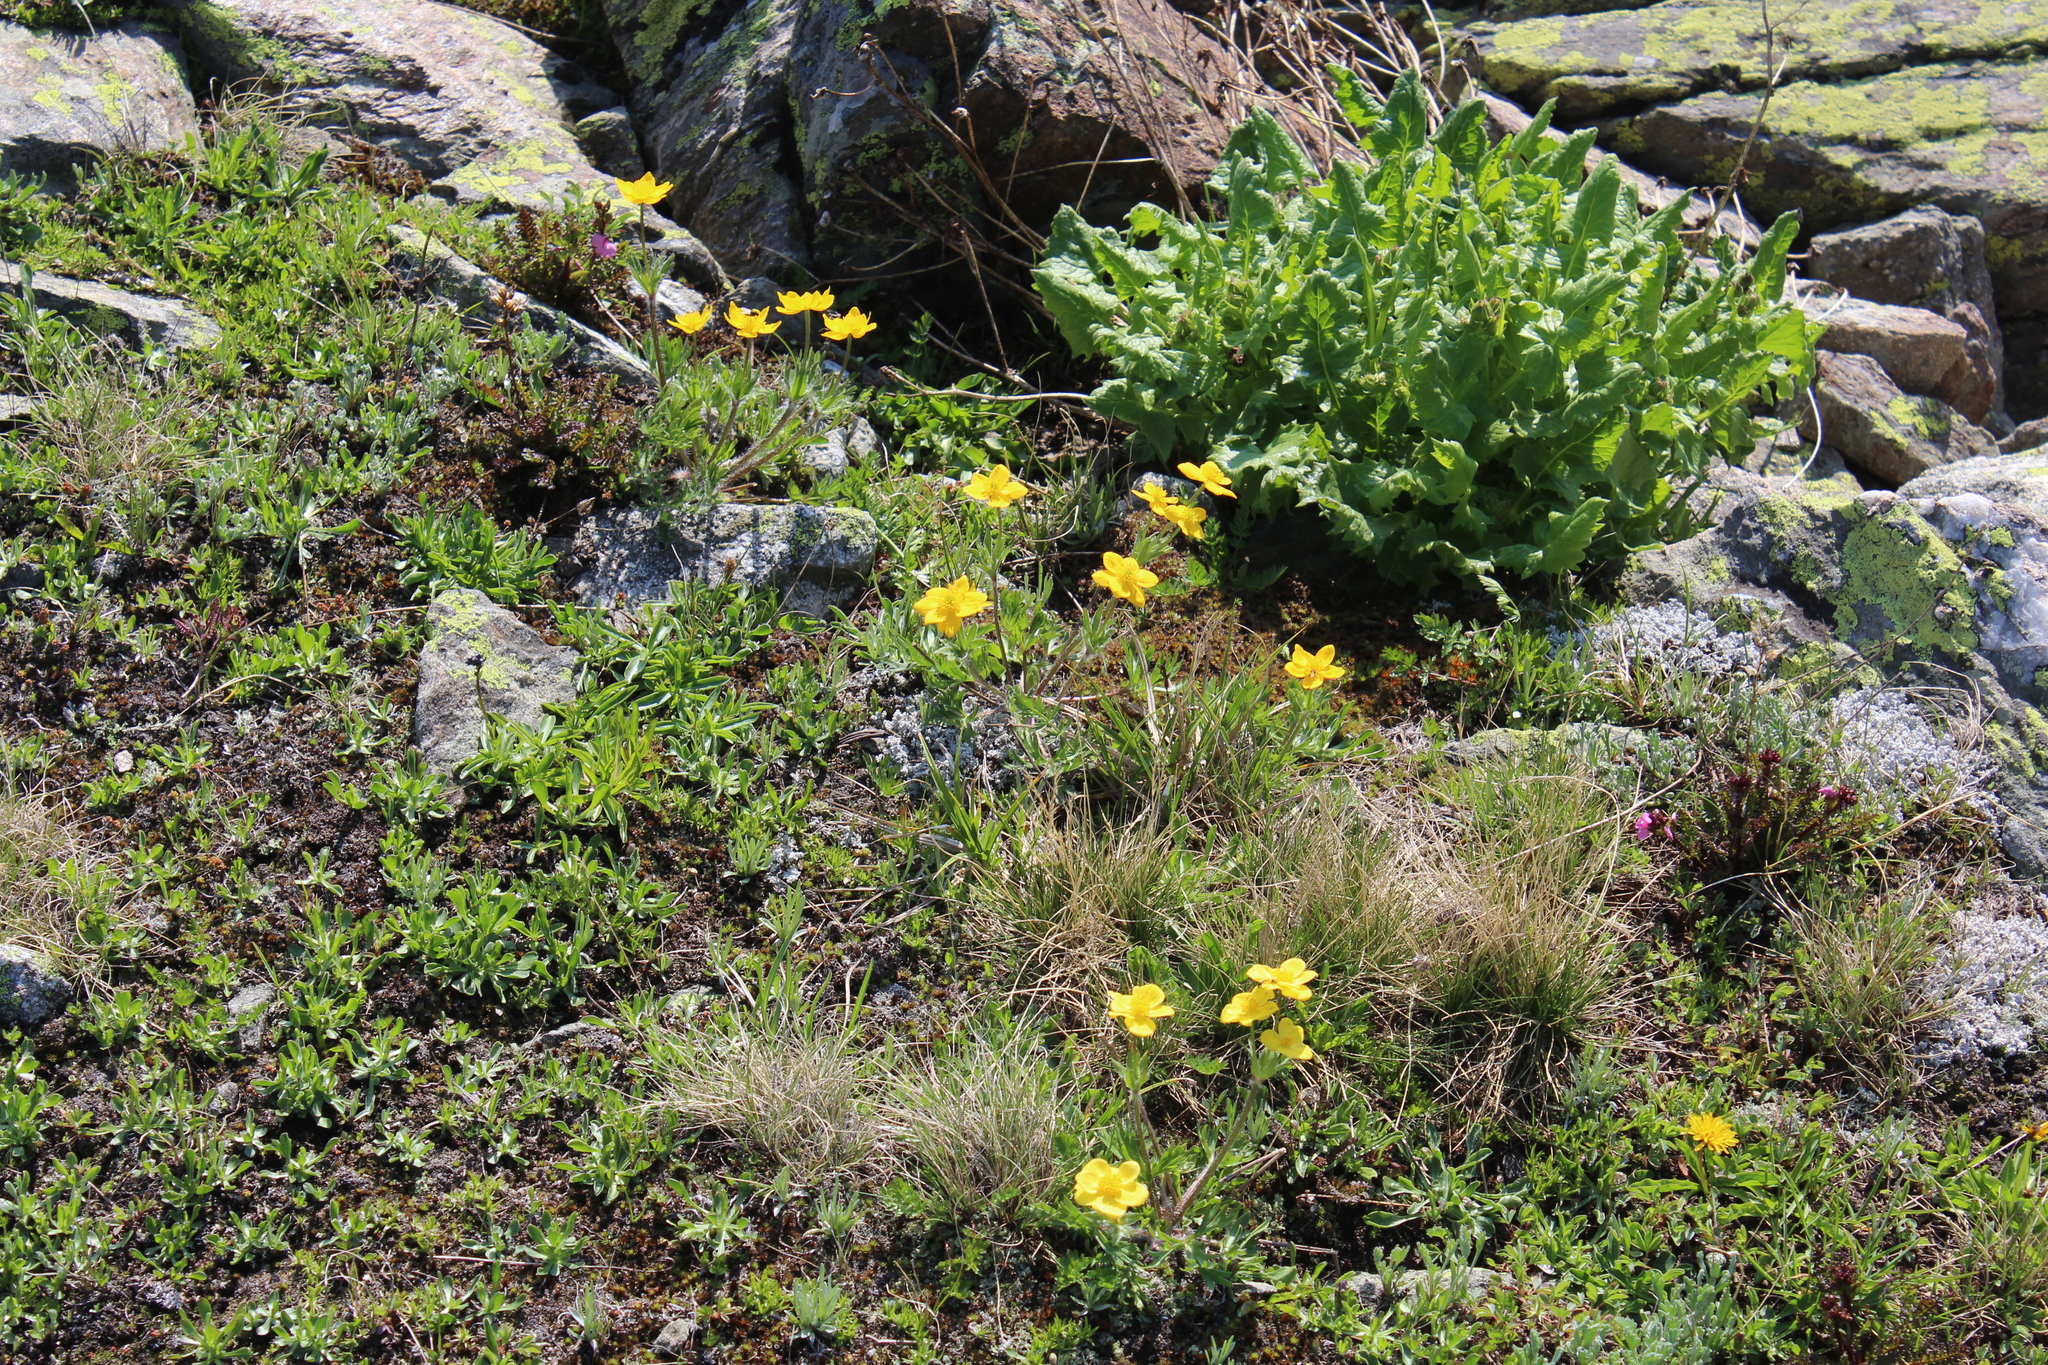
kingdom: Plantae
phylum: Tracheophyta
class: Magnoliopsida
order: Ranunculales
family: Ranunculaceae
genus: Anemonastrum
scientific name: Anemonastrum narcissiflorum
